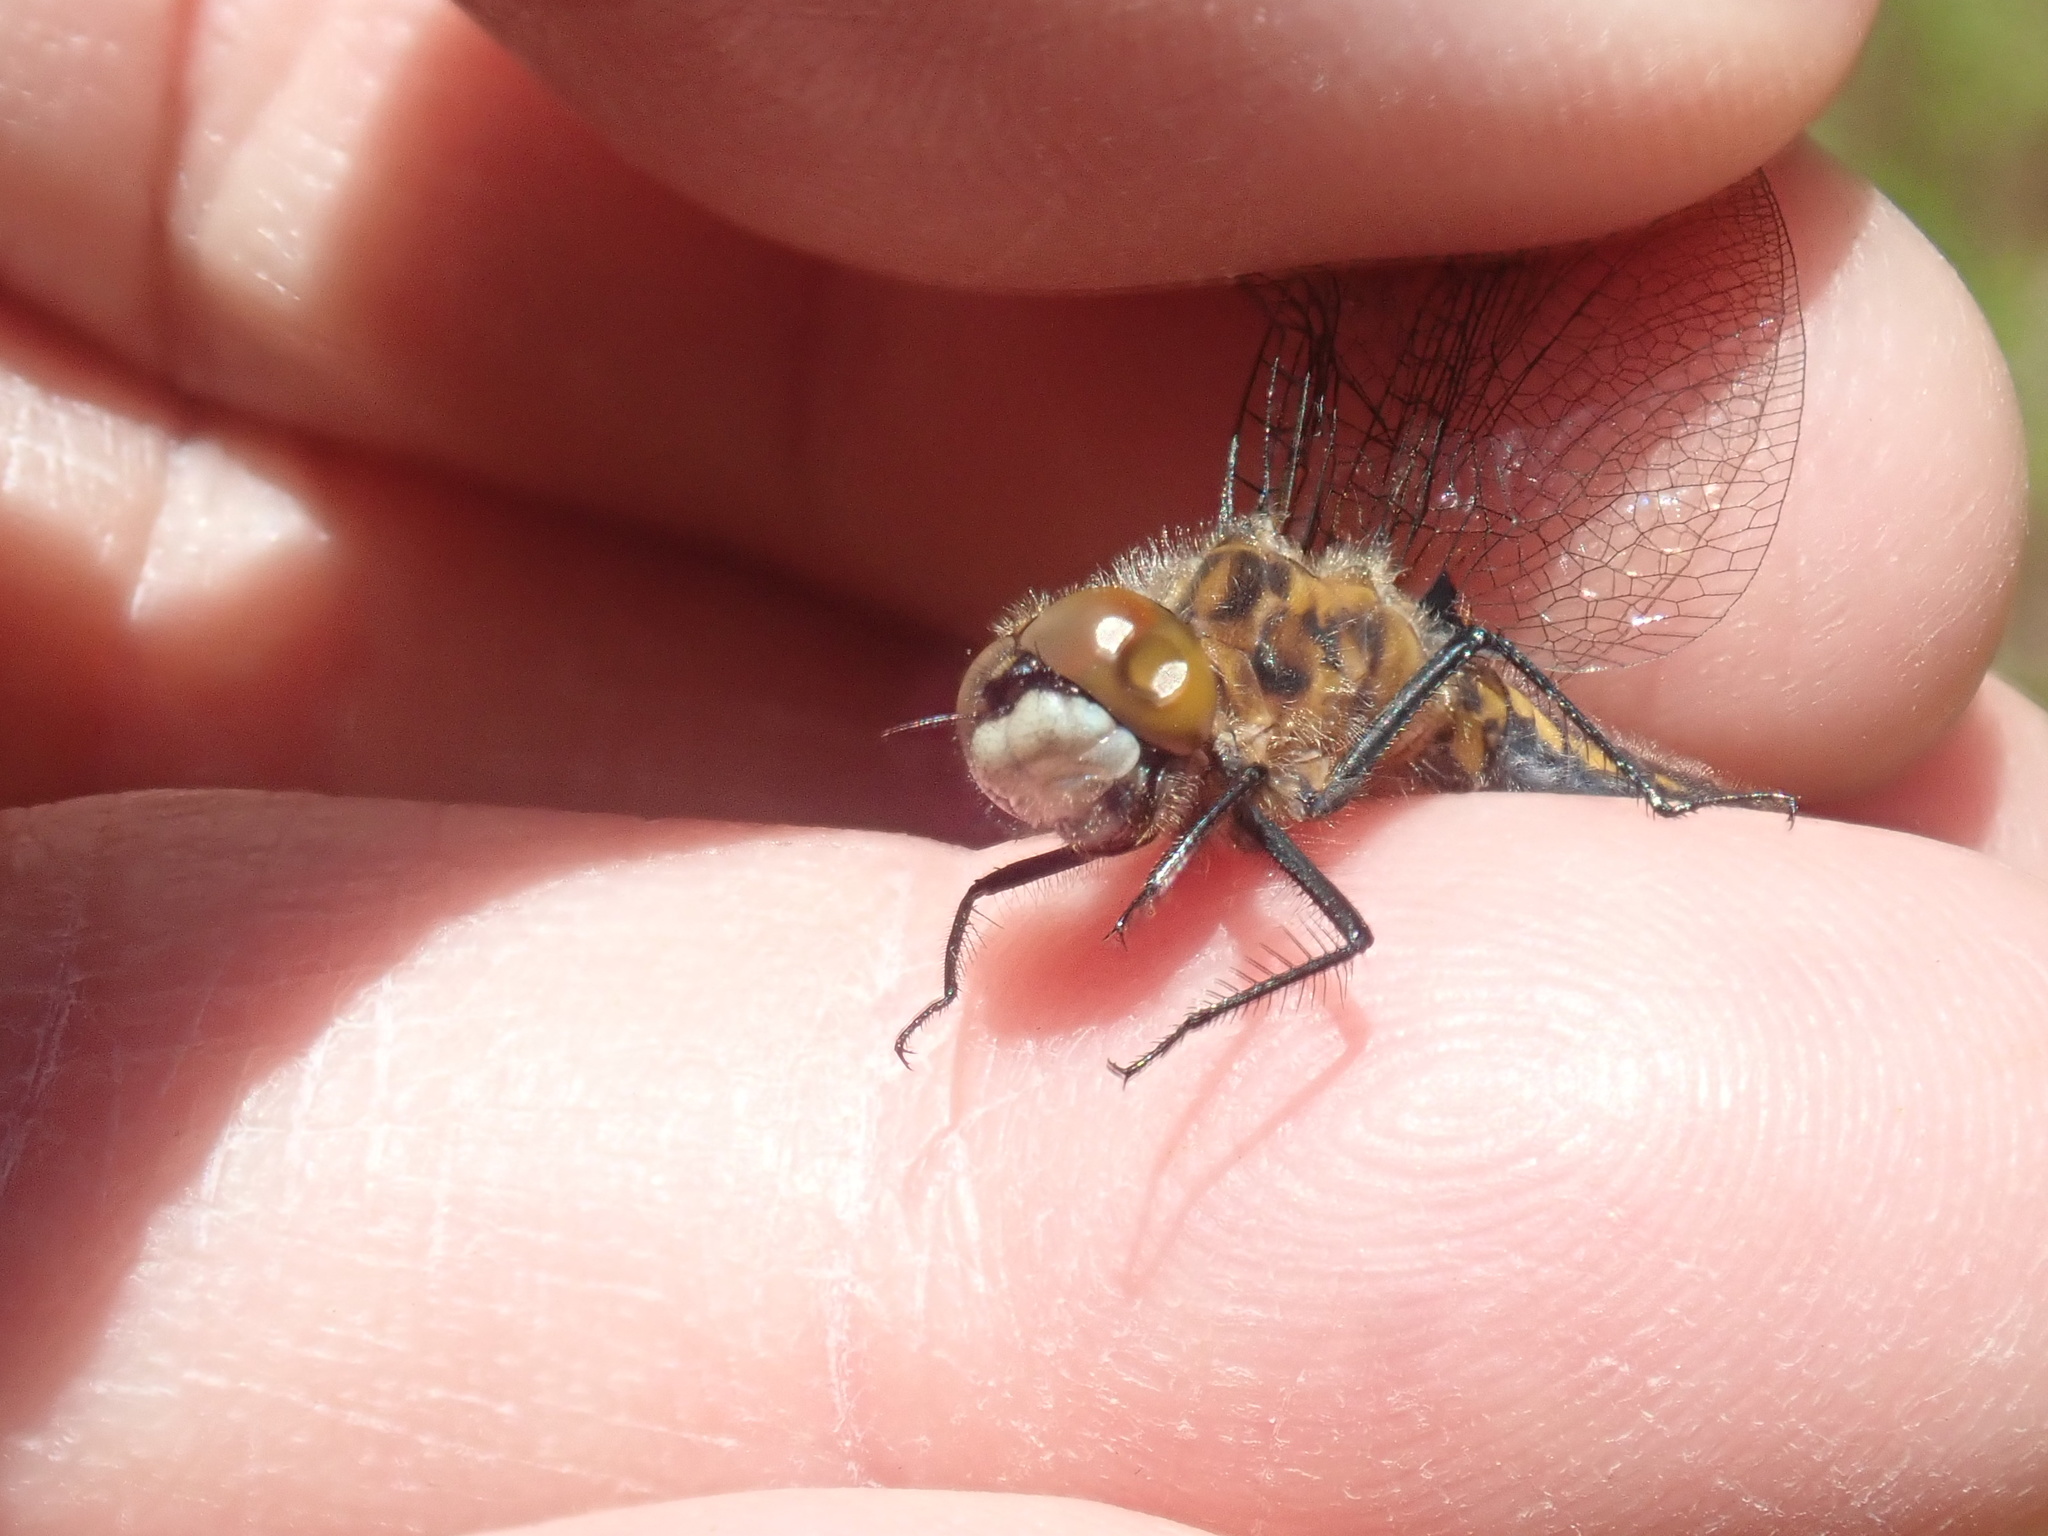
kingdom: Animalia
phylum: Arthropoda
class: Insecta
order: Odonata
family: Libellulidae
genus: Leucorrhinia
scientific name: Leucorrhinia intacta
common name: Dot-tailed whiteface
